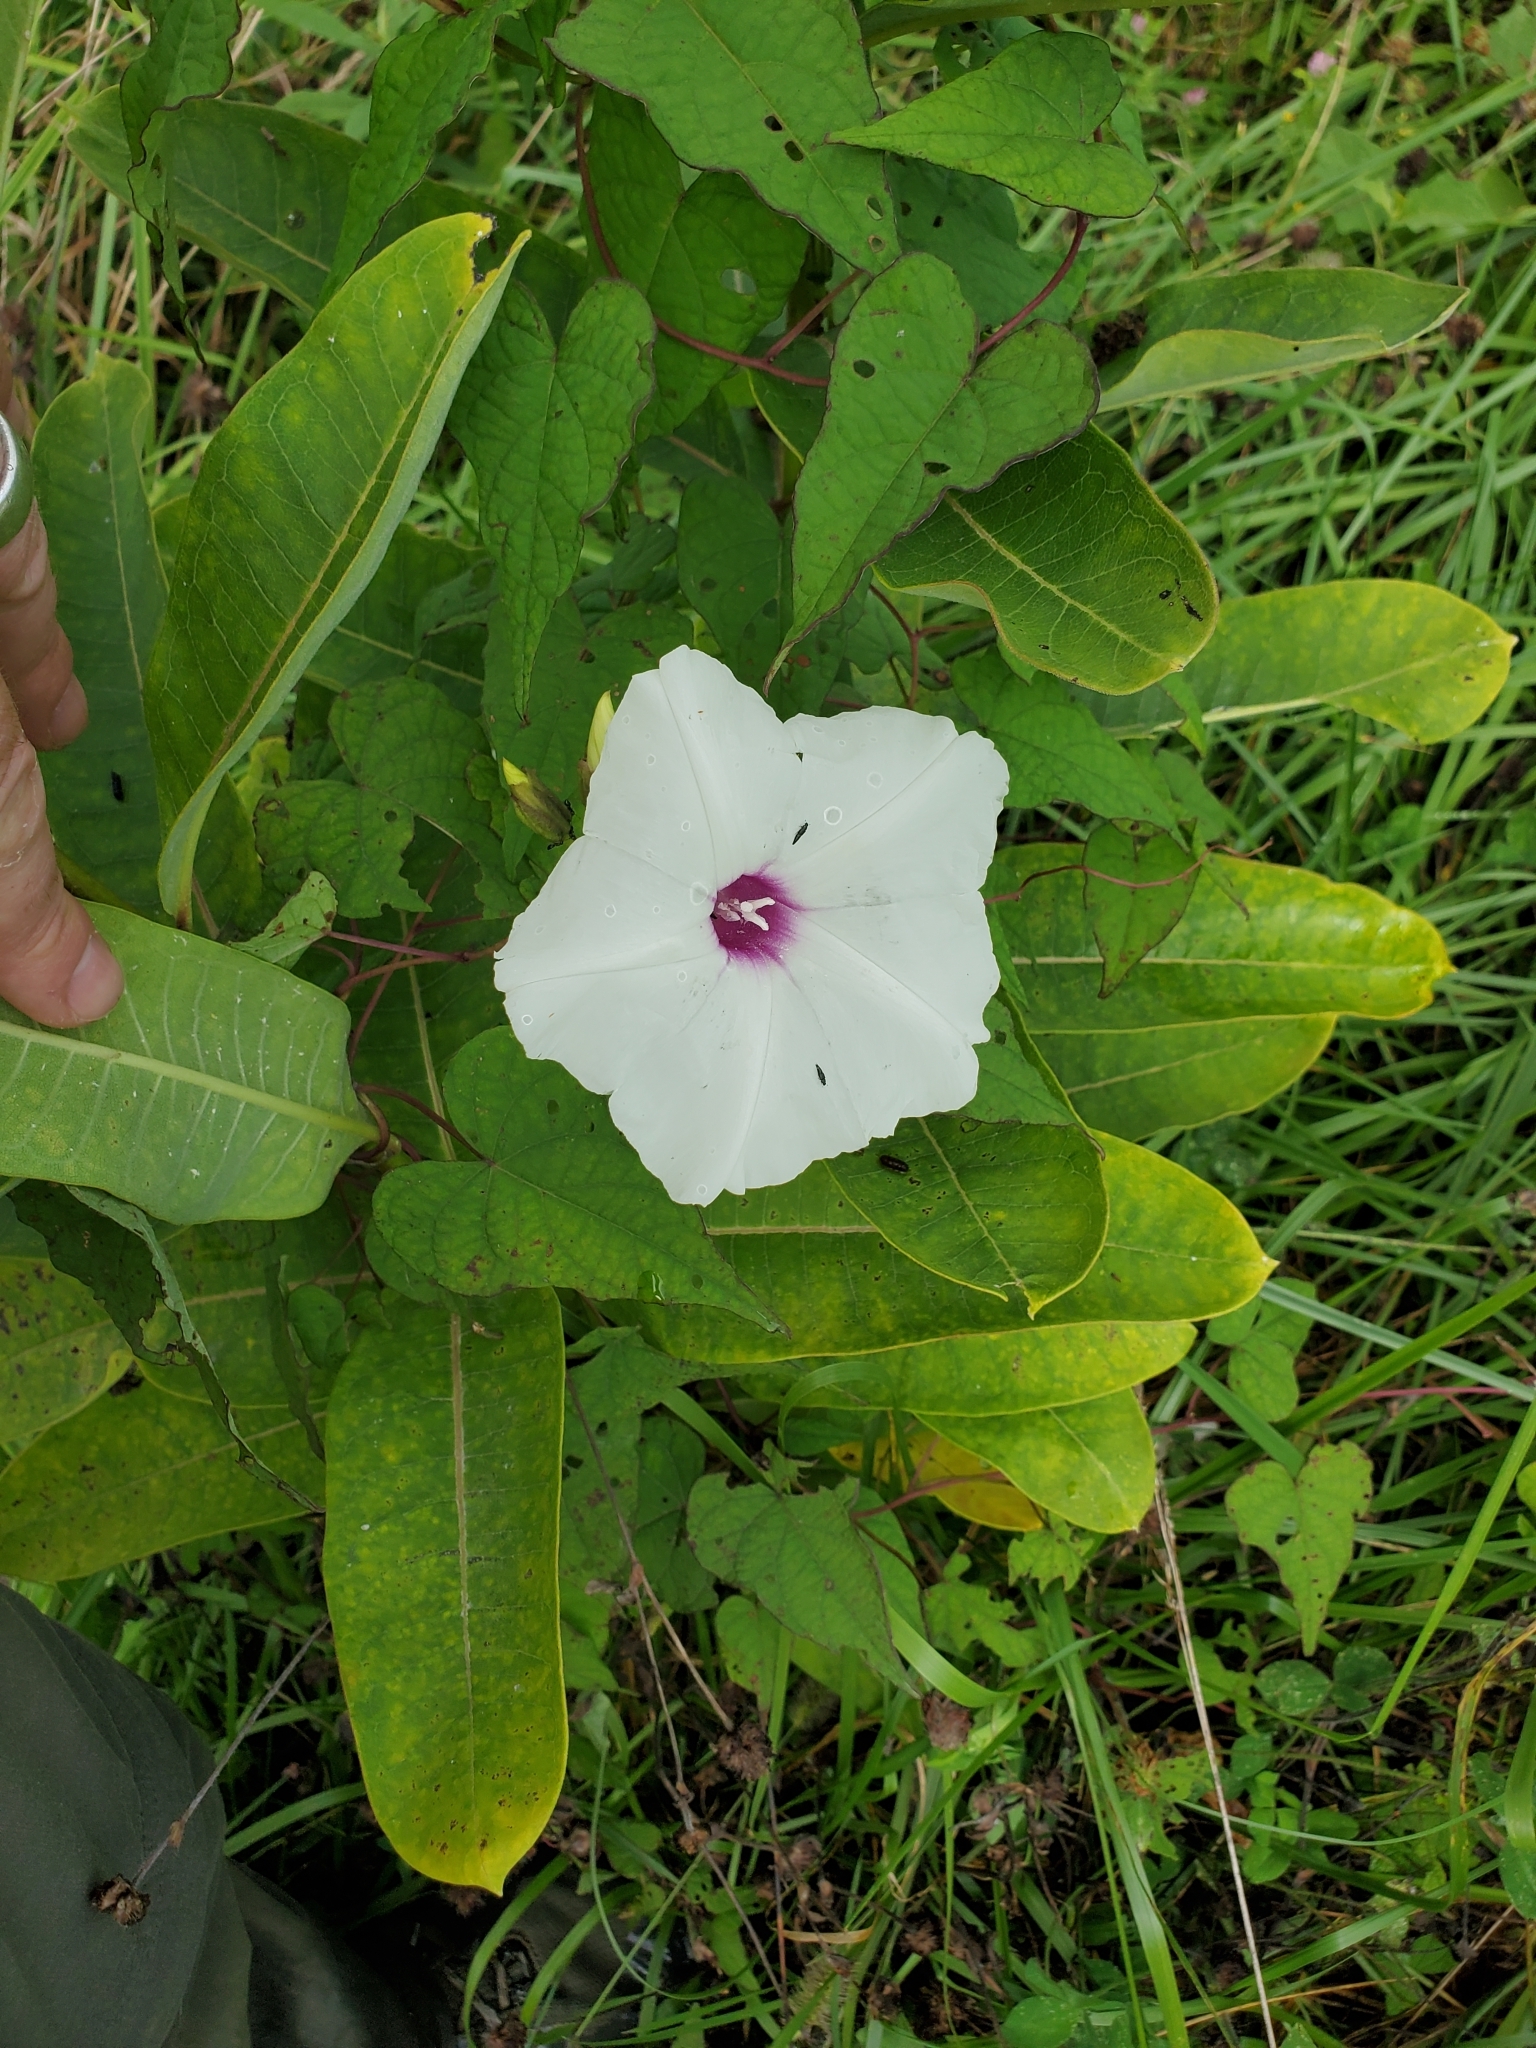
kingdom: Plantae
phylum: Tracheophyta
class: Magnoliopsida
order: Solanales
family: Convolvulaceae
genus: Ipomoea
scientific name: Ipomoea pandurata
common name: Man-of-the-earth
